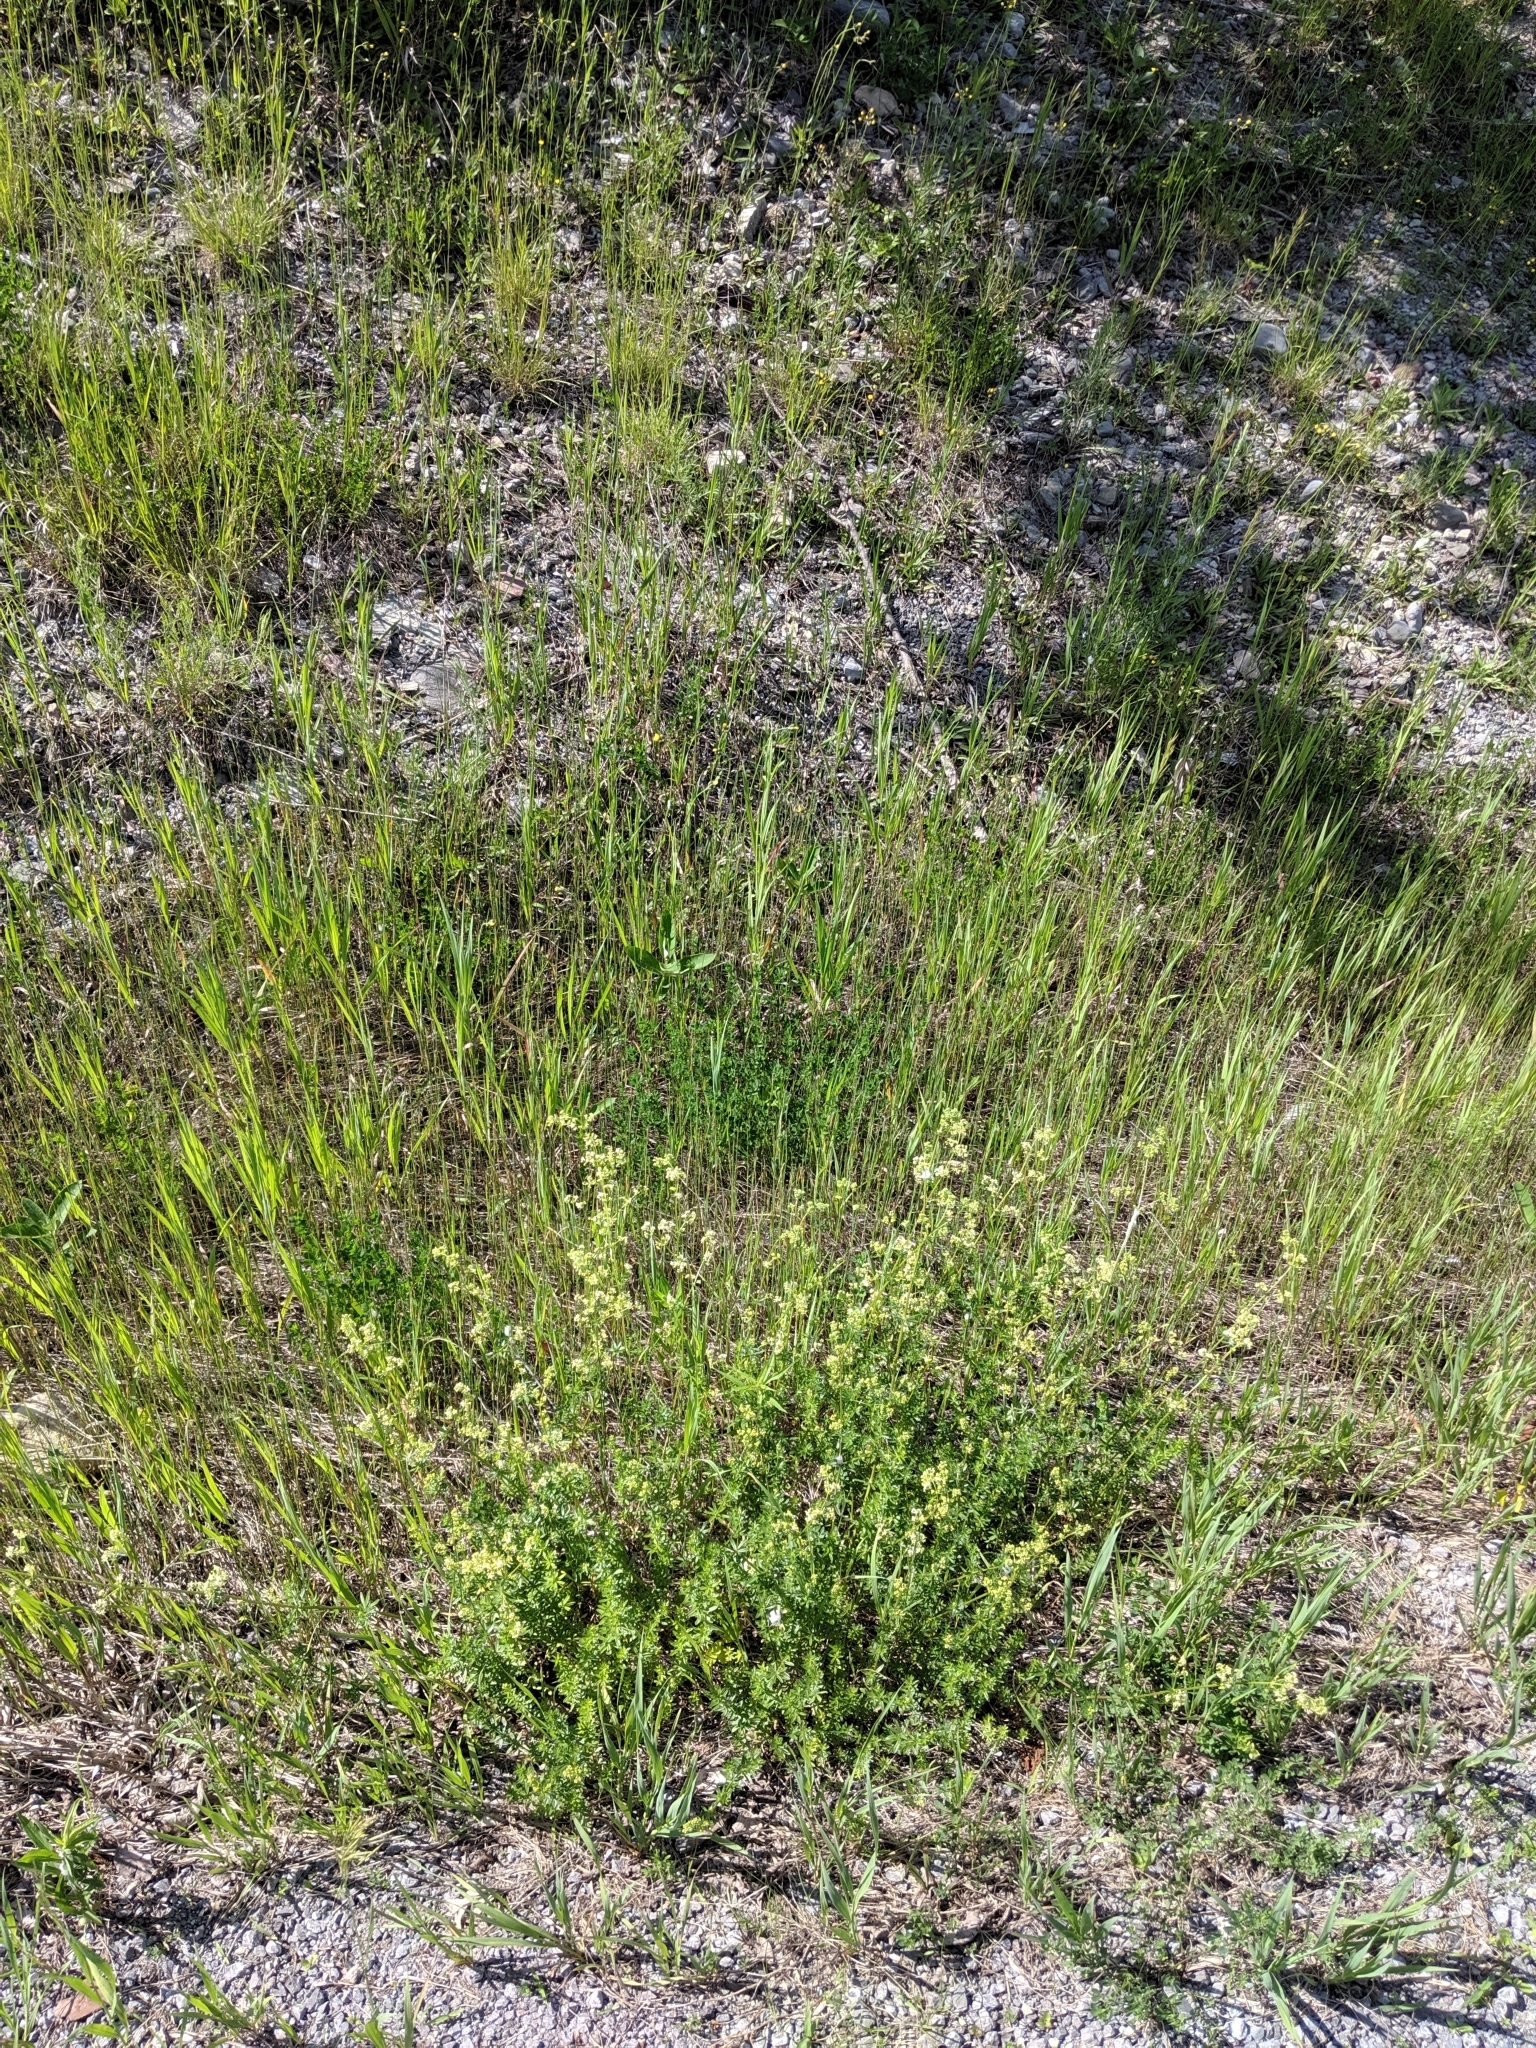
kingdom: Plantae
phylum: Tracheophyta
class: Magnoliopsida
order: Gentianales
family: Rubiaceae
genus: Galium
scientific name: Galium album
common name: White bedstraw
